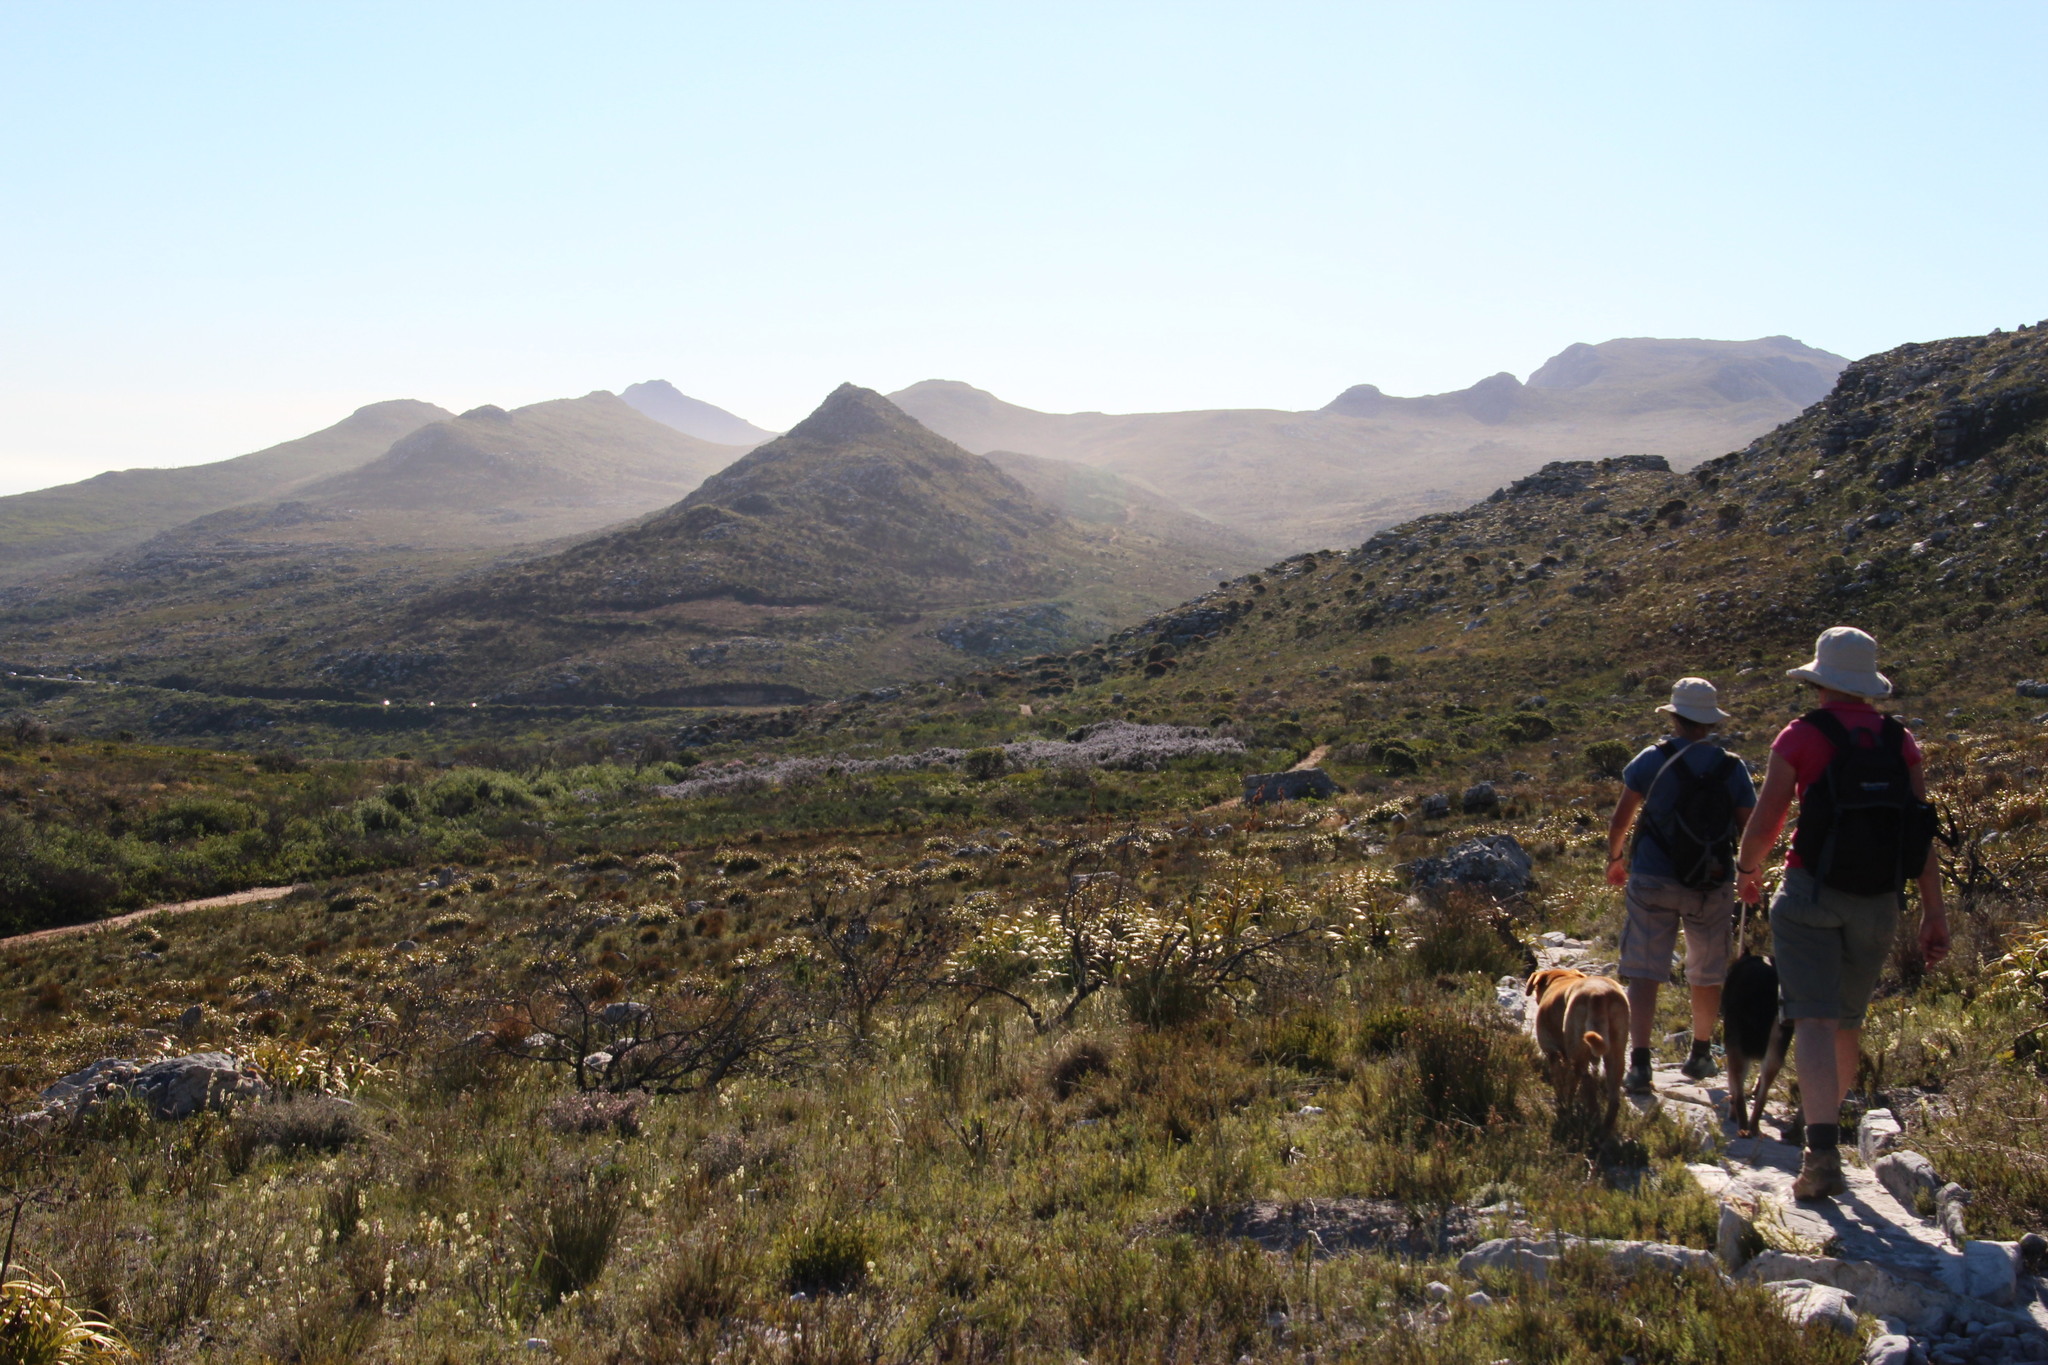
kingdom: Plantae
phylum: Tracheophyta
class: Liliopsida
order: Poales
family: Cyperaceae
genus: Tetraria
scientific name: Tetraria thermalis
